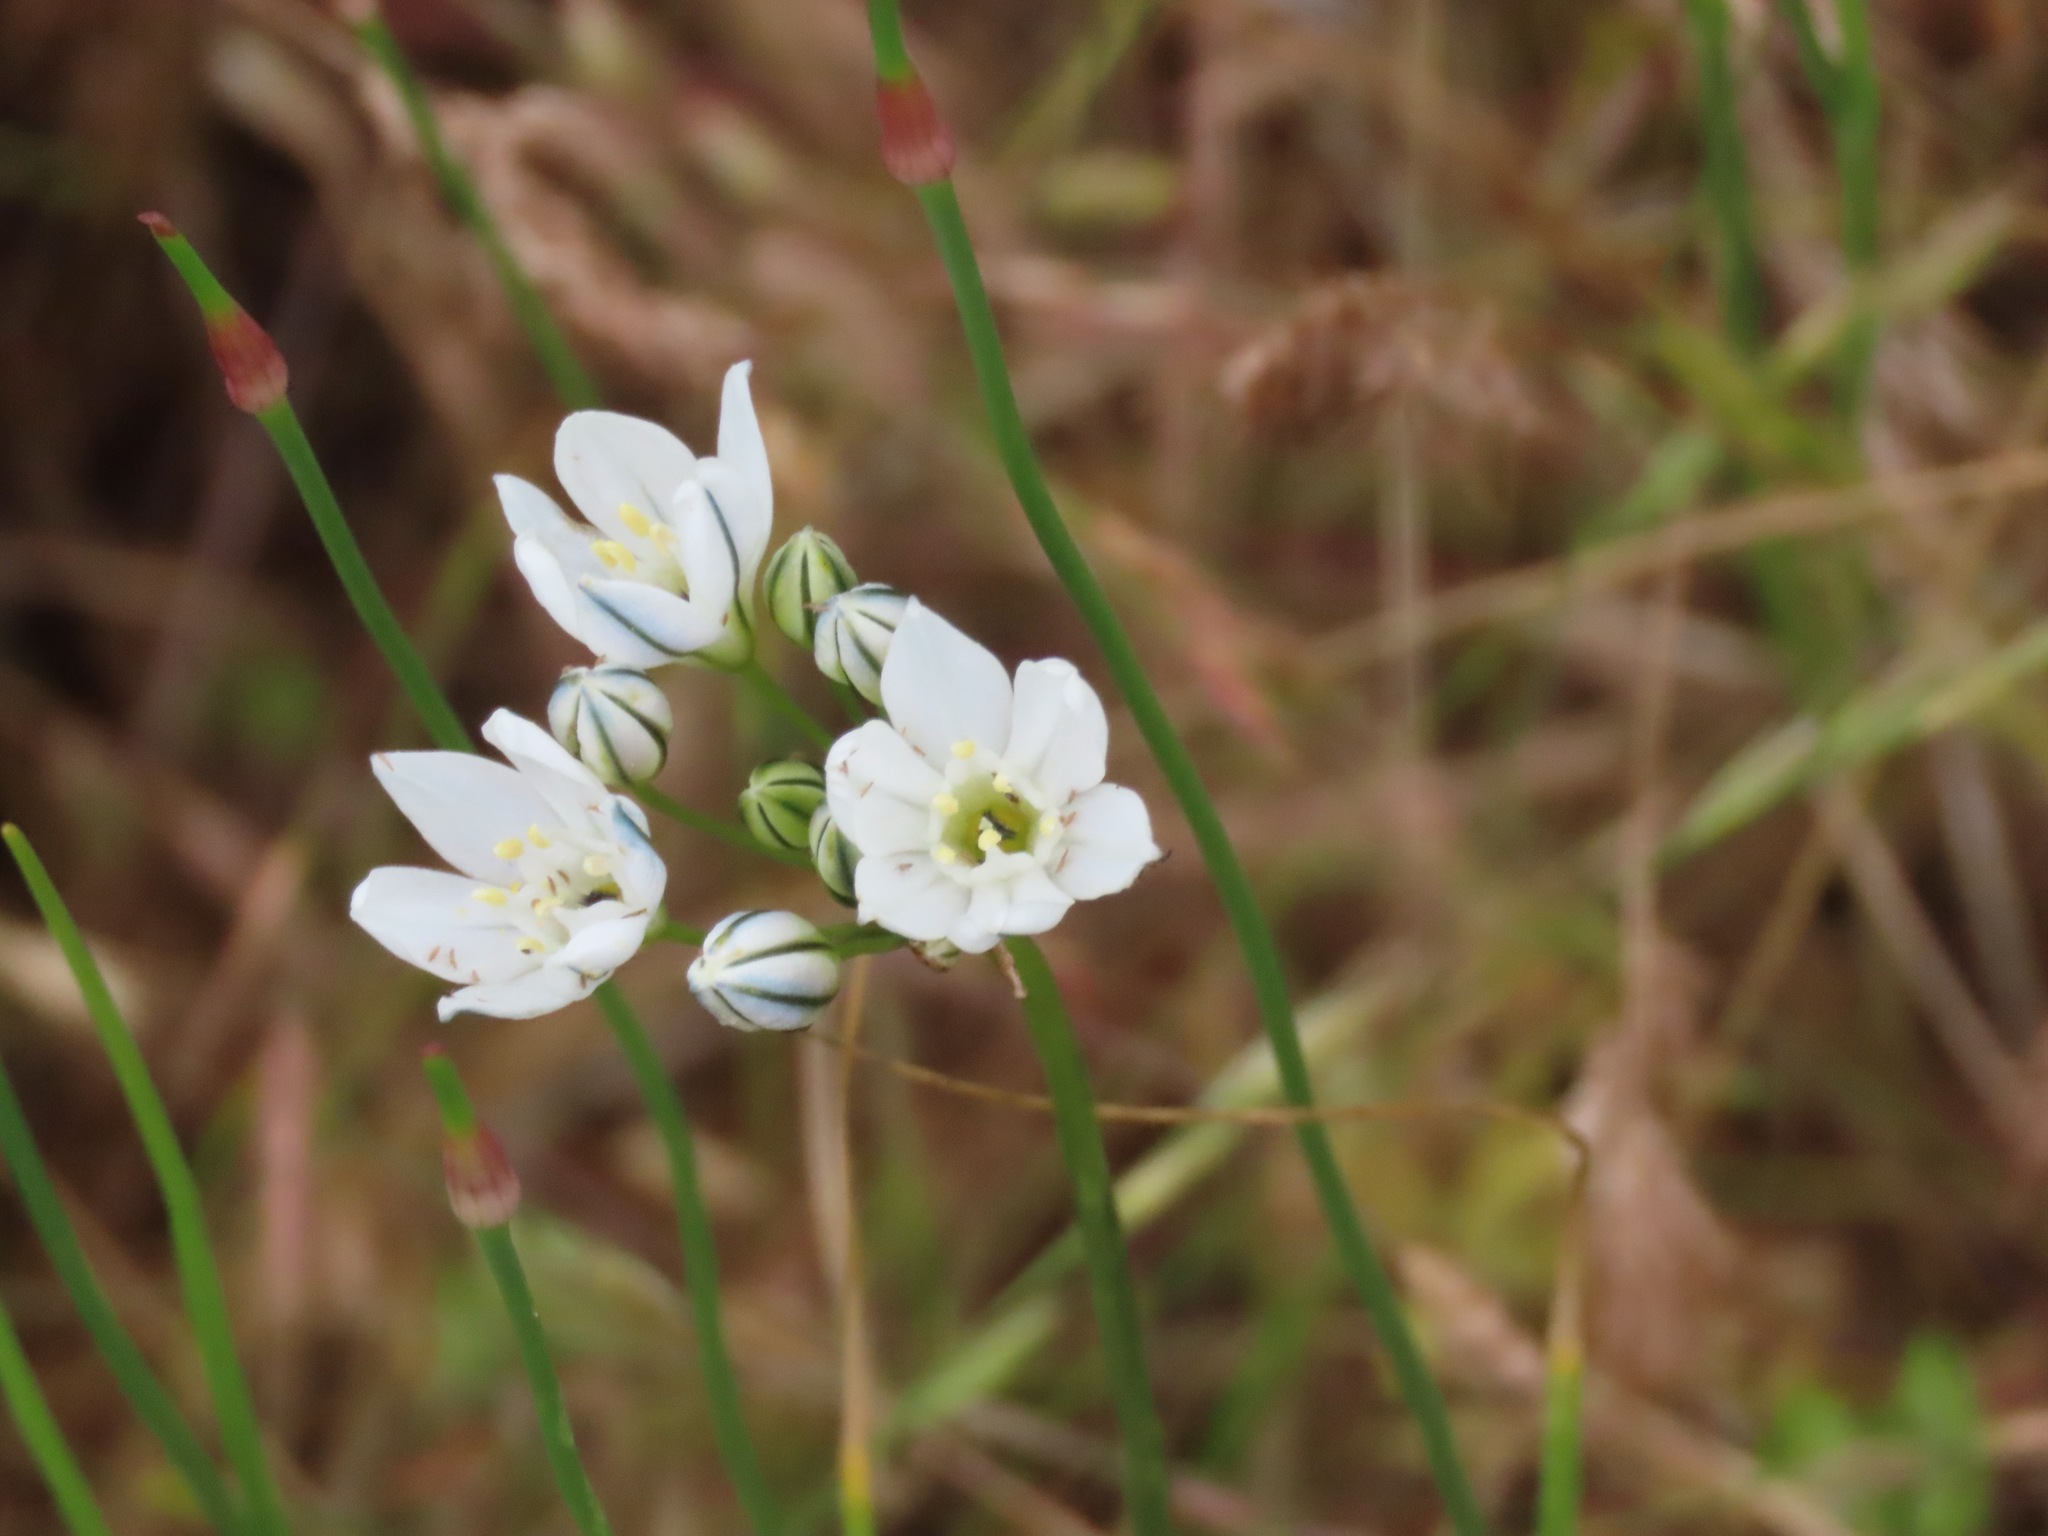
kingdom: Plantae
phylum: Tracheophyta
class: Liliopsida
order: Asparagales
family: Asparagaceae
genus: Triteleia
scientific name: Triteleia hyacinthina
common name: White brodiaea
